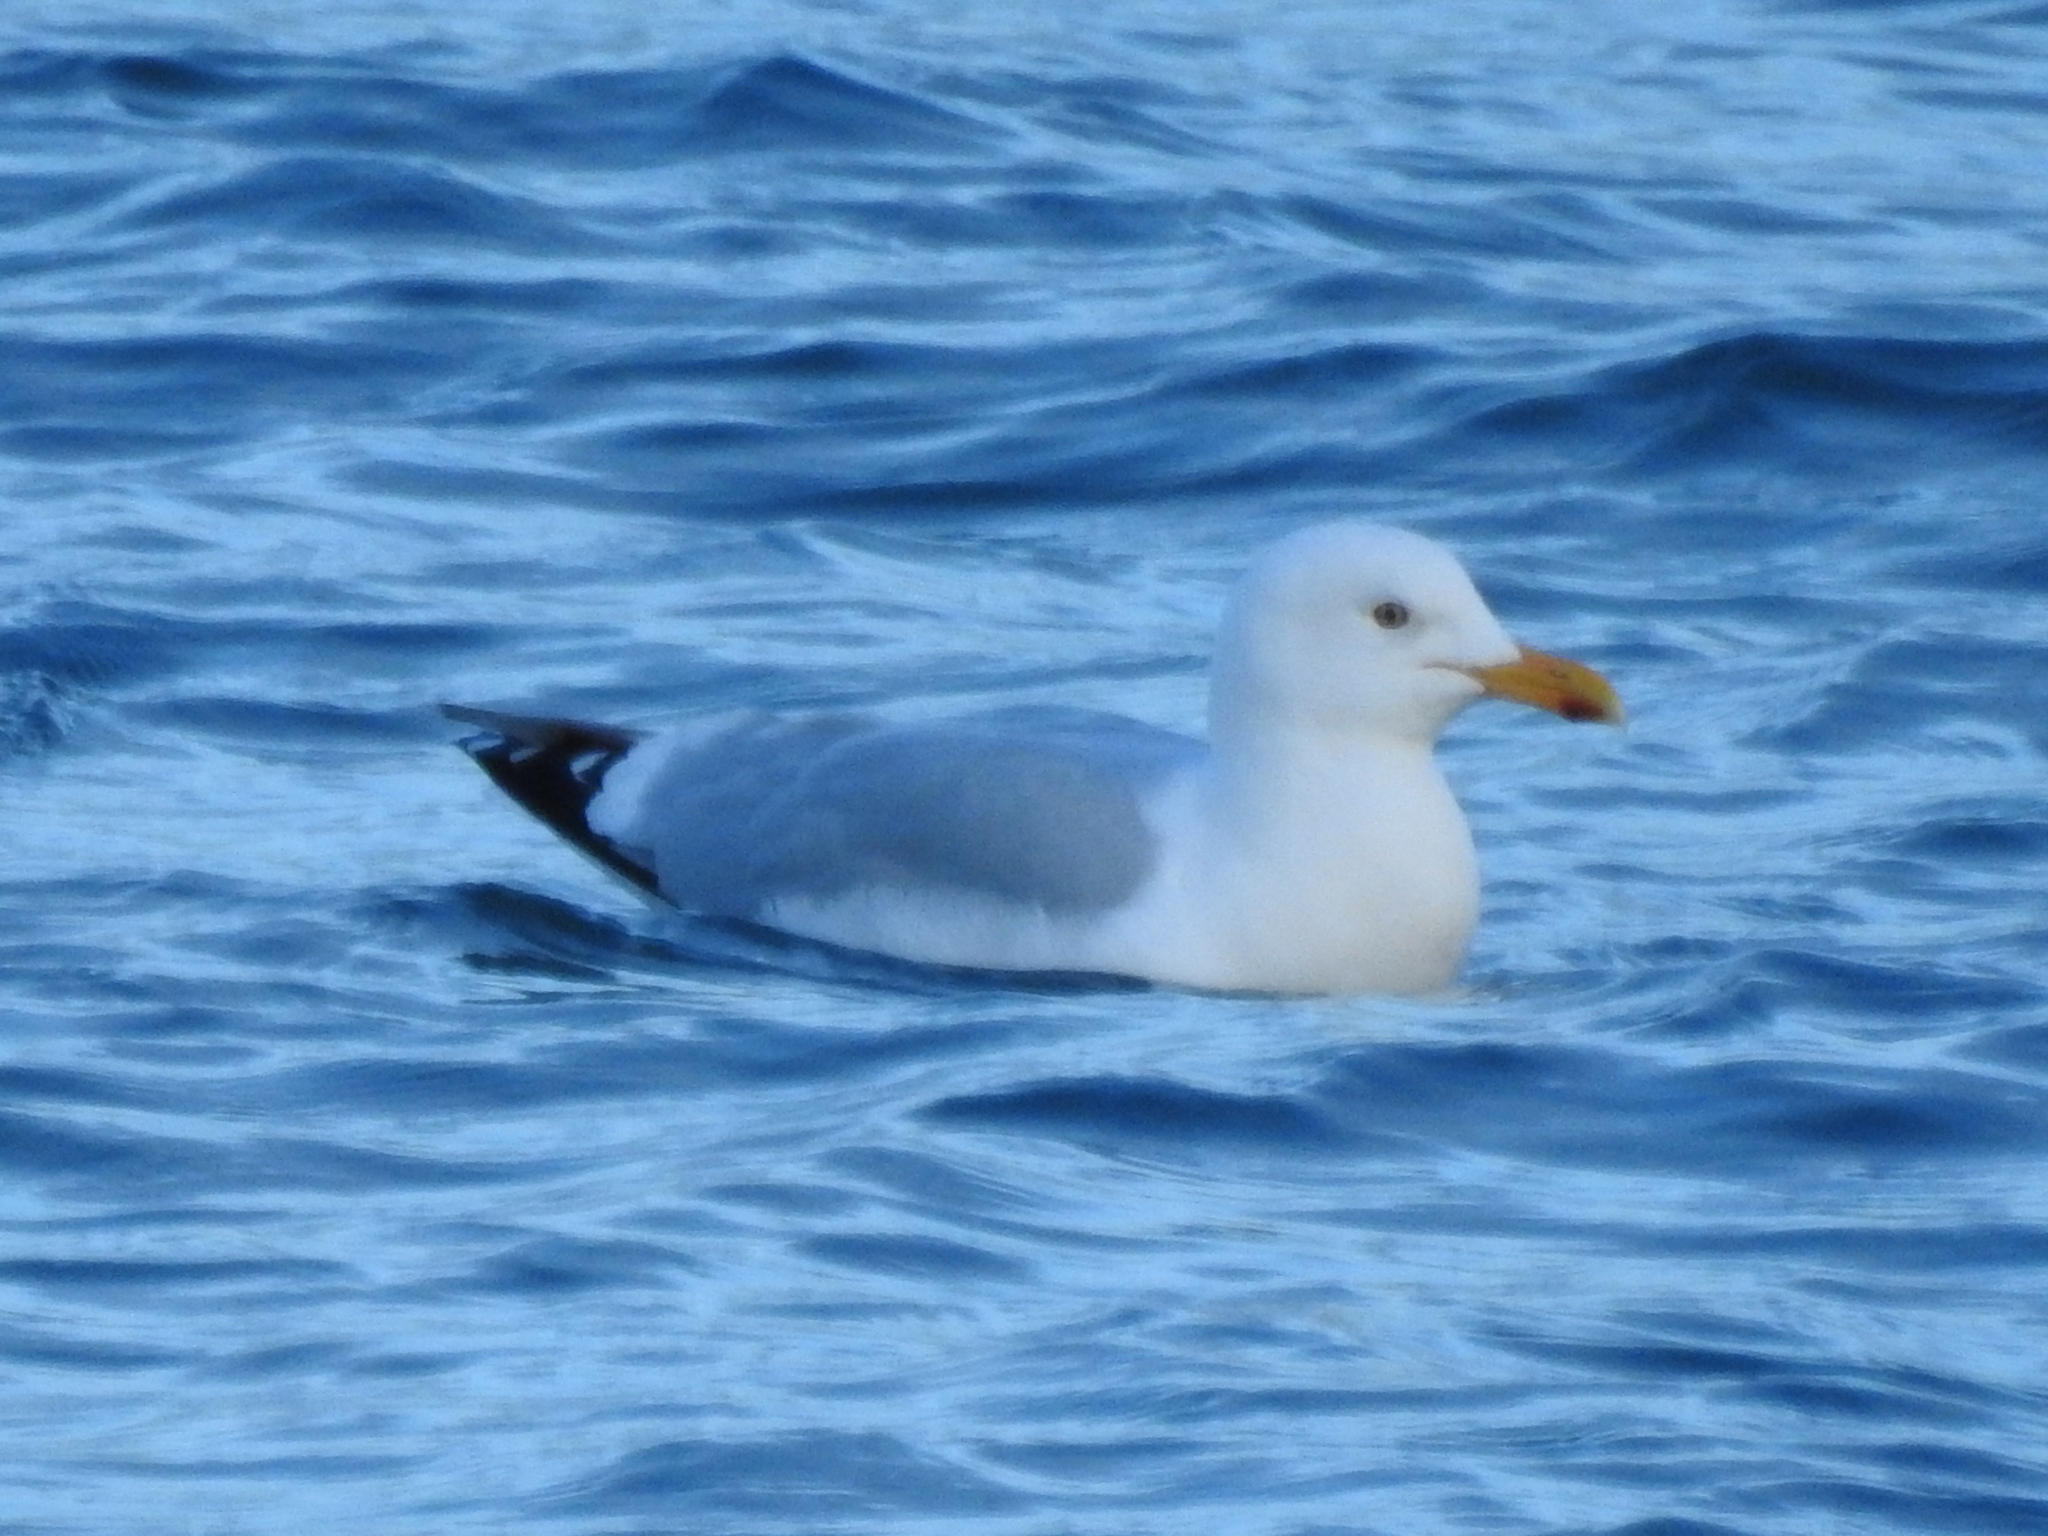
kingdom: Animalia
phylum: Chordata
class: Aves
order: Charadriiformes
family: Laridae
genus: Larus
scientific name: Larus argentatus
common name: Herring gull
